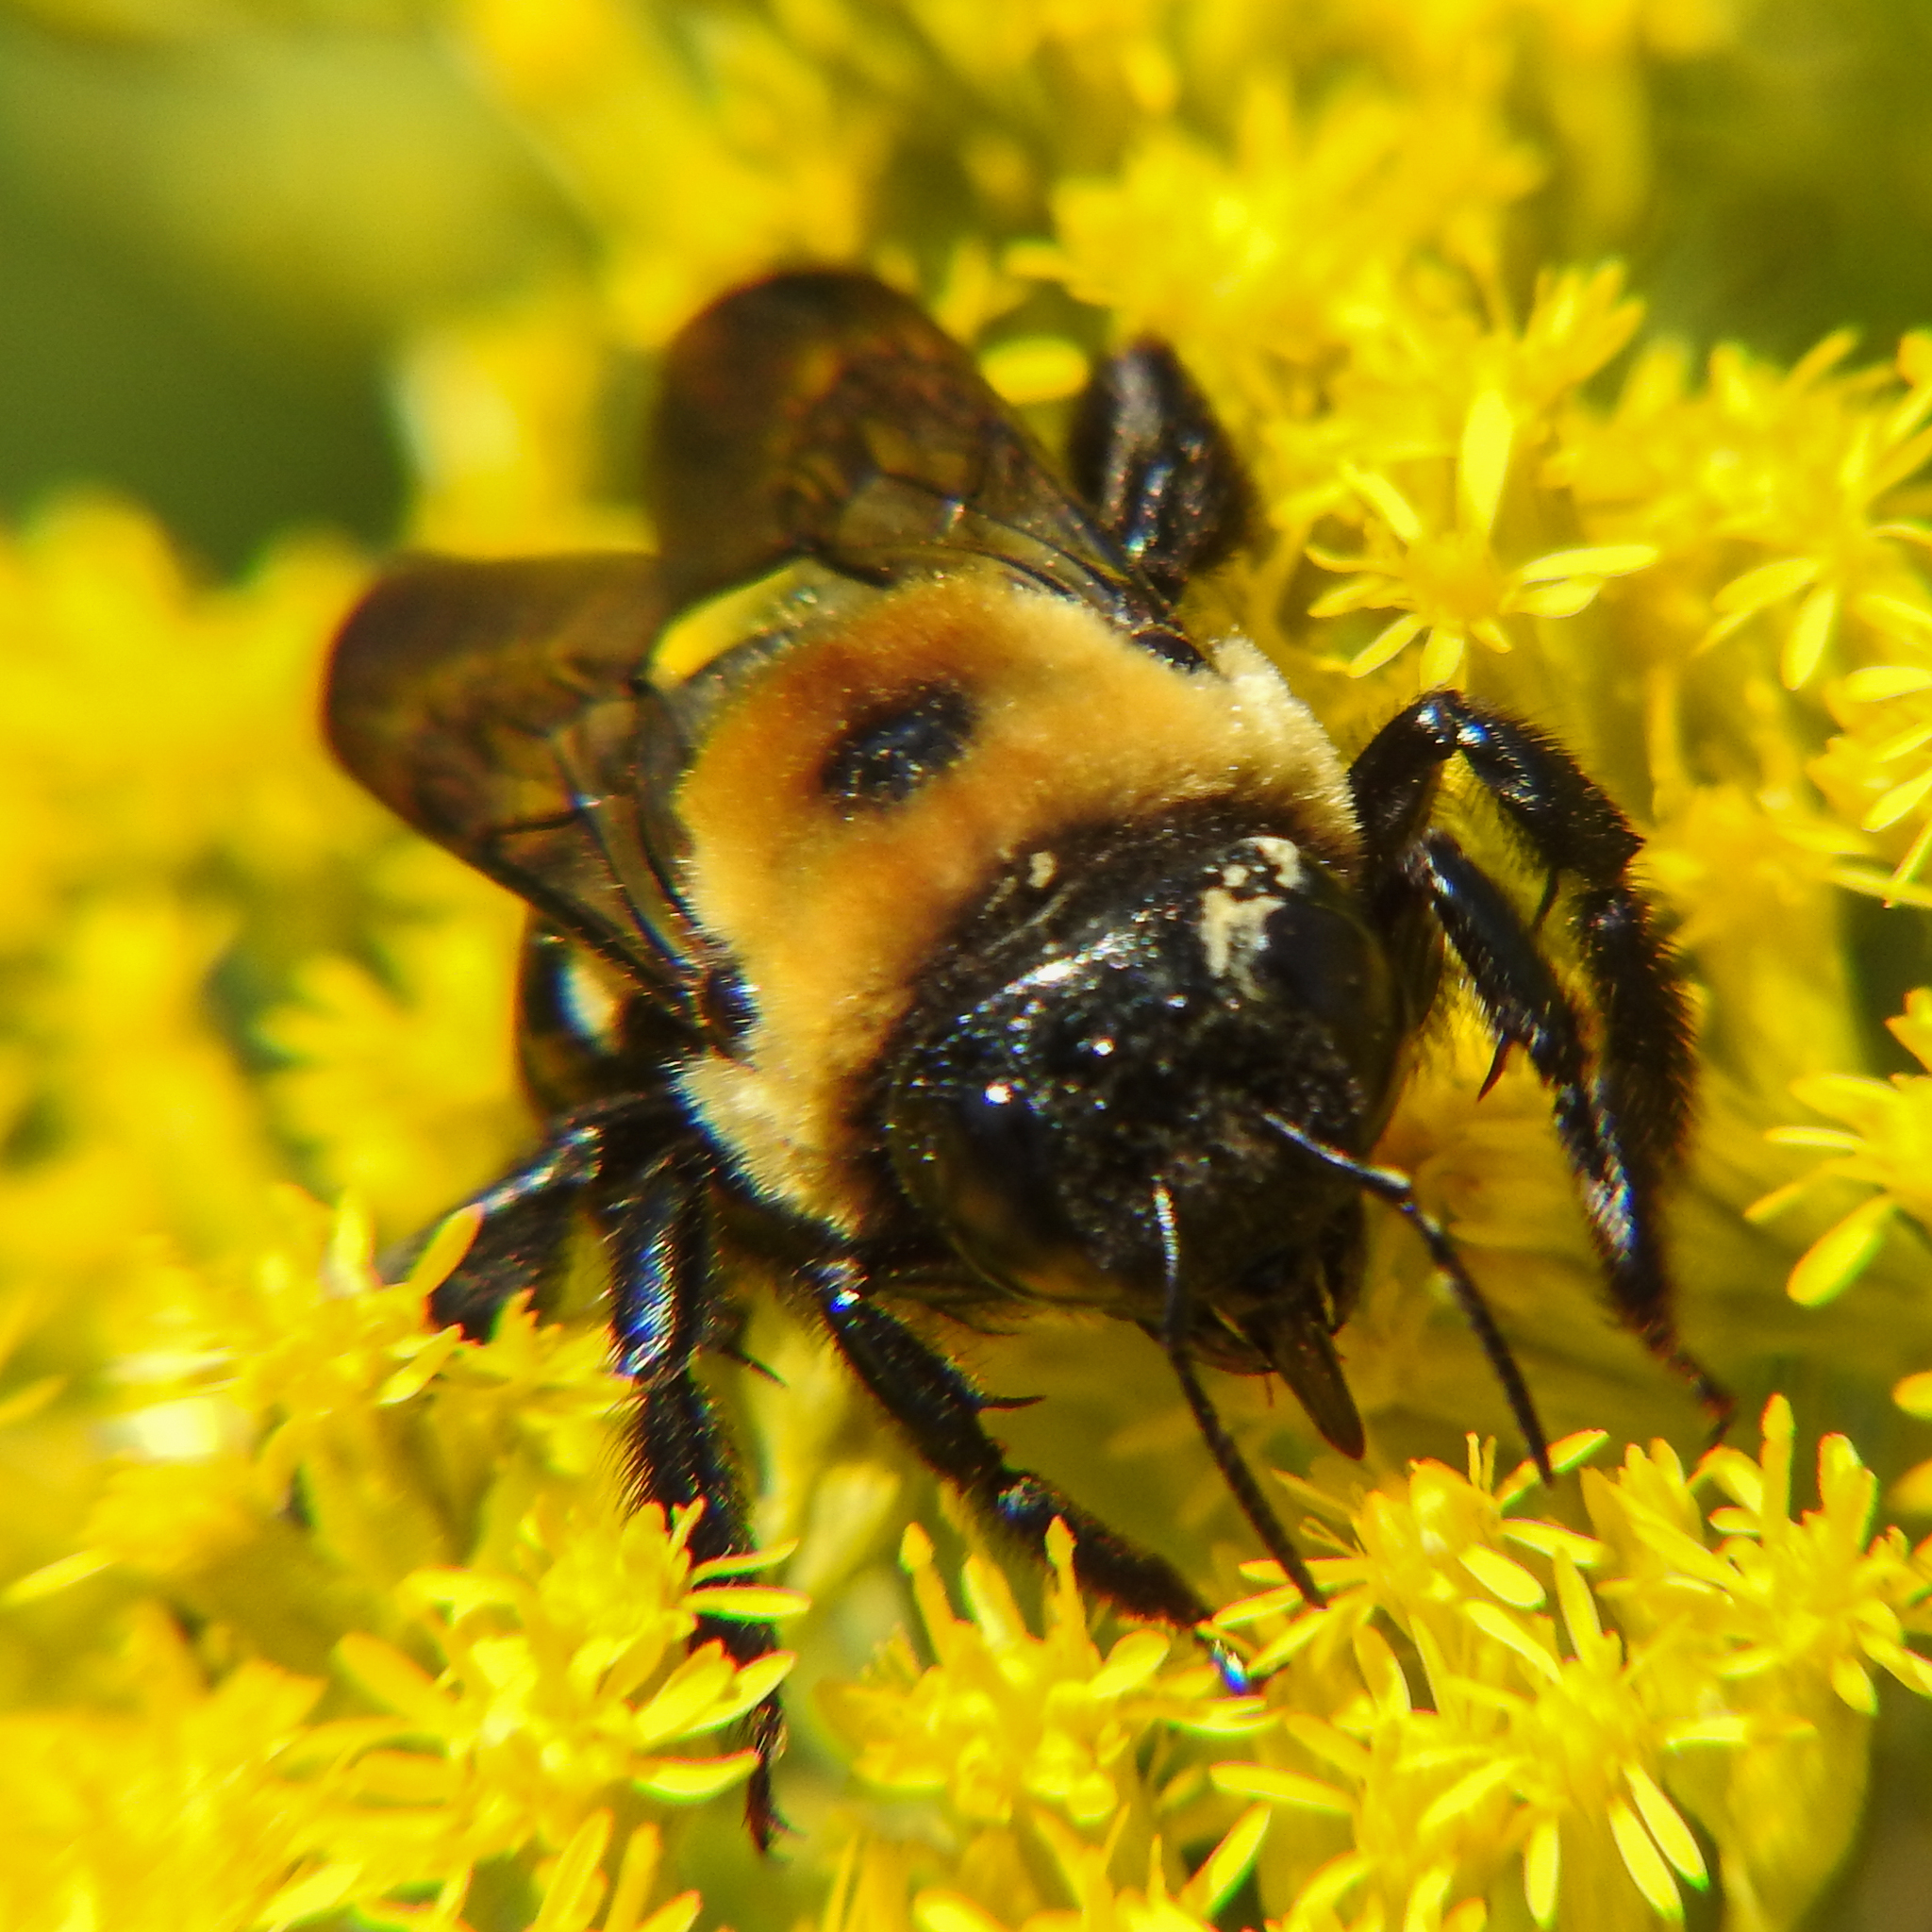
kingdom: Animalia
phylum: Arthropoda
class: Insecta
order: Hymenoptera
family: Apidae
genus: Xylocopa
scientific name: Xylocopa virginica
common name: Carpenter bee
